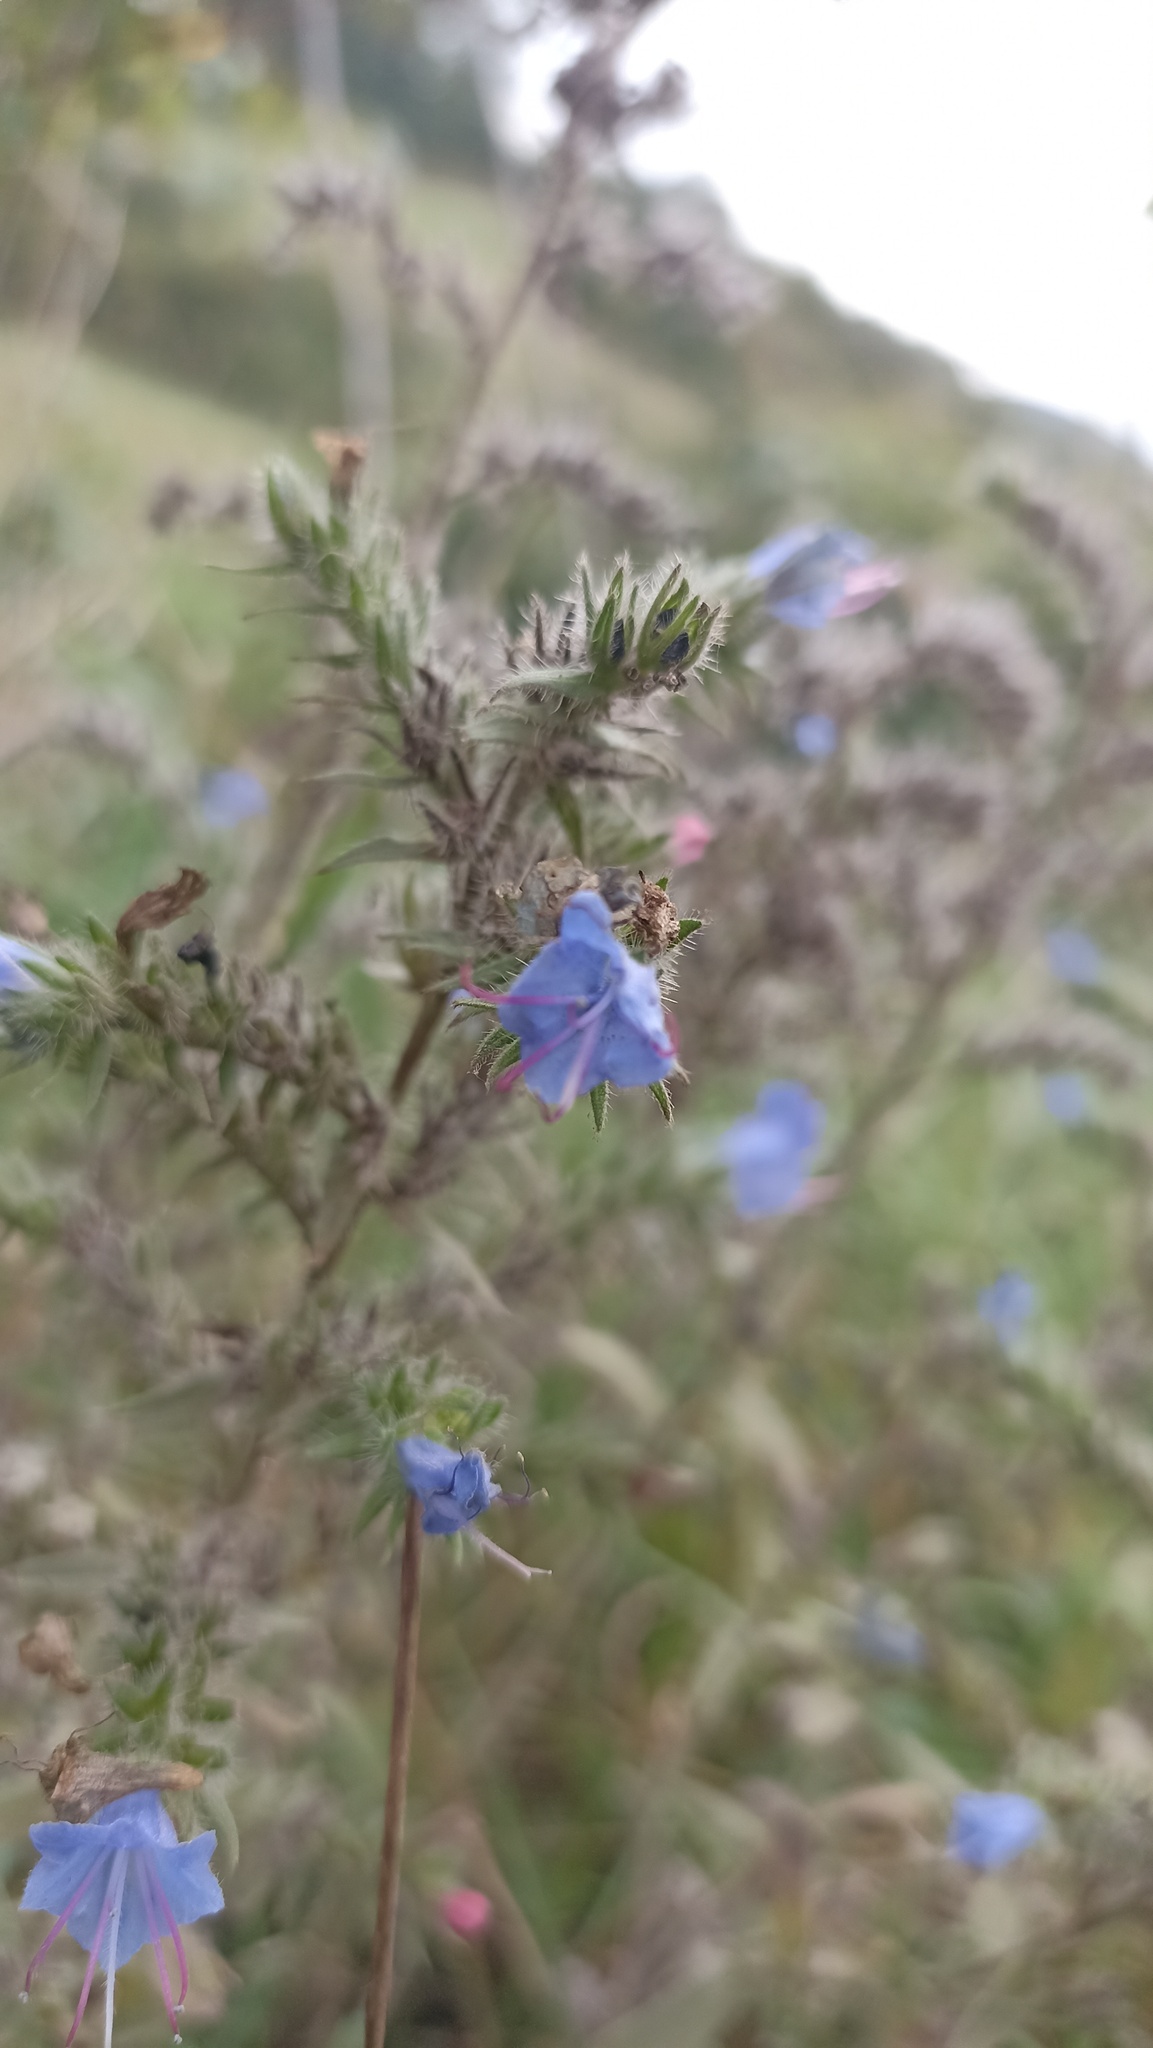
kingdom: Plantae
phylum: Tracheophyta
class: Magnoliopsida
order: Boraginales
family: Boraginaceae
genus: Echium
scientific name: Echium vulgare
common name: Common viper's bugloss
